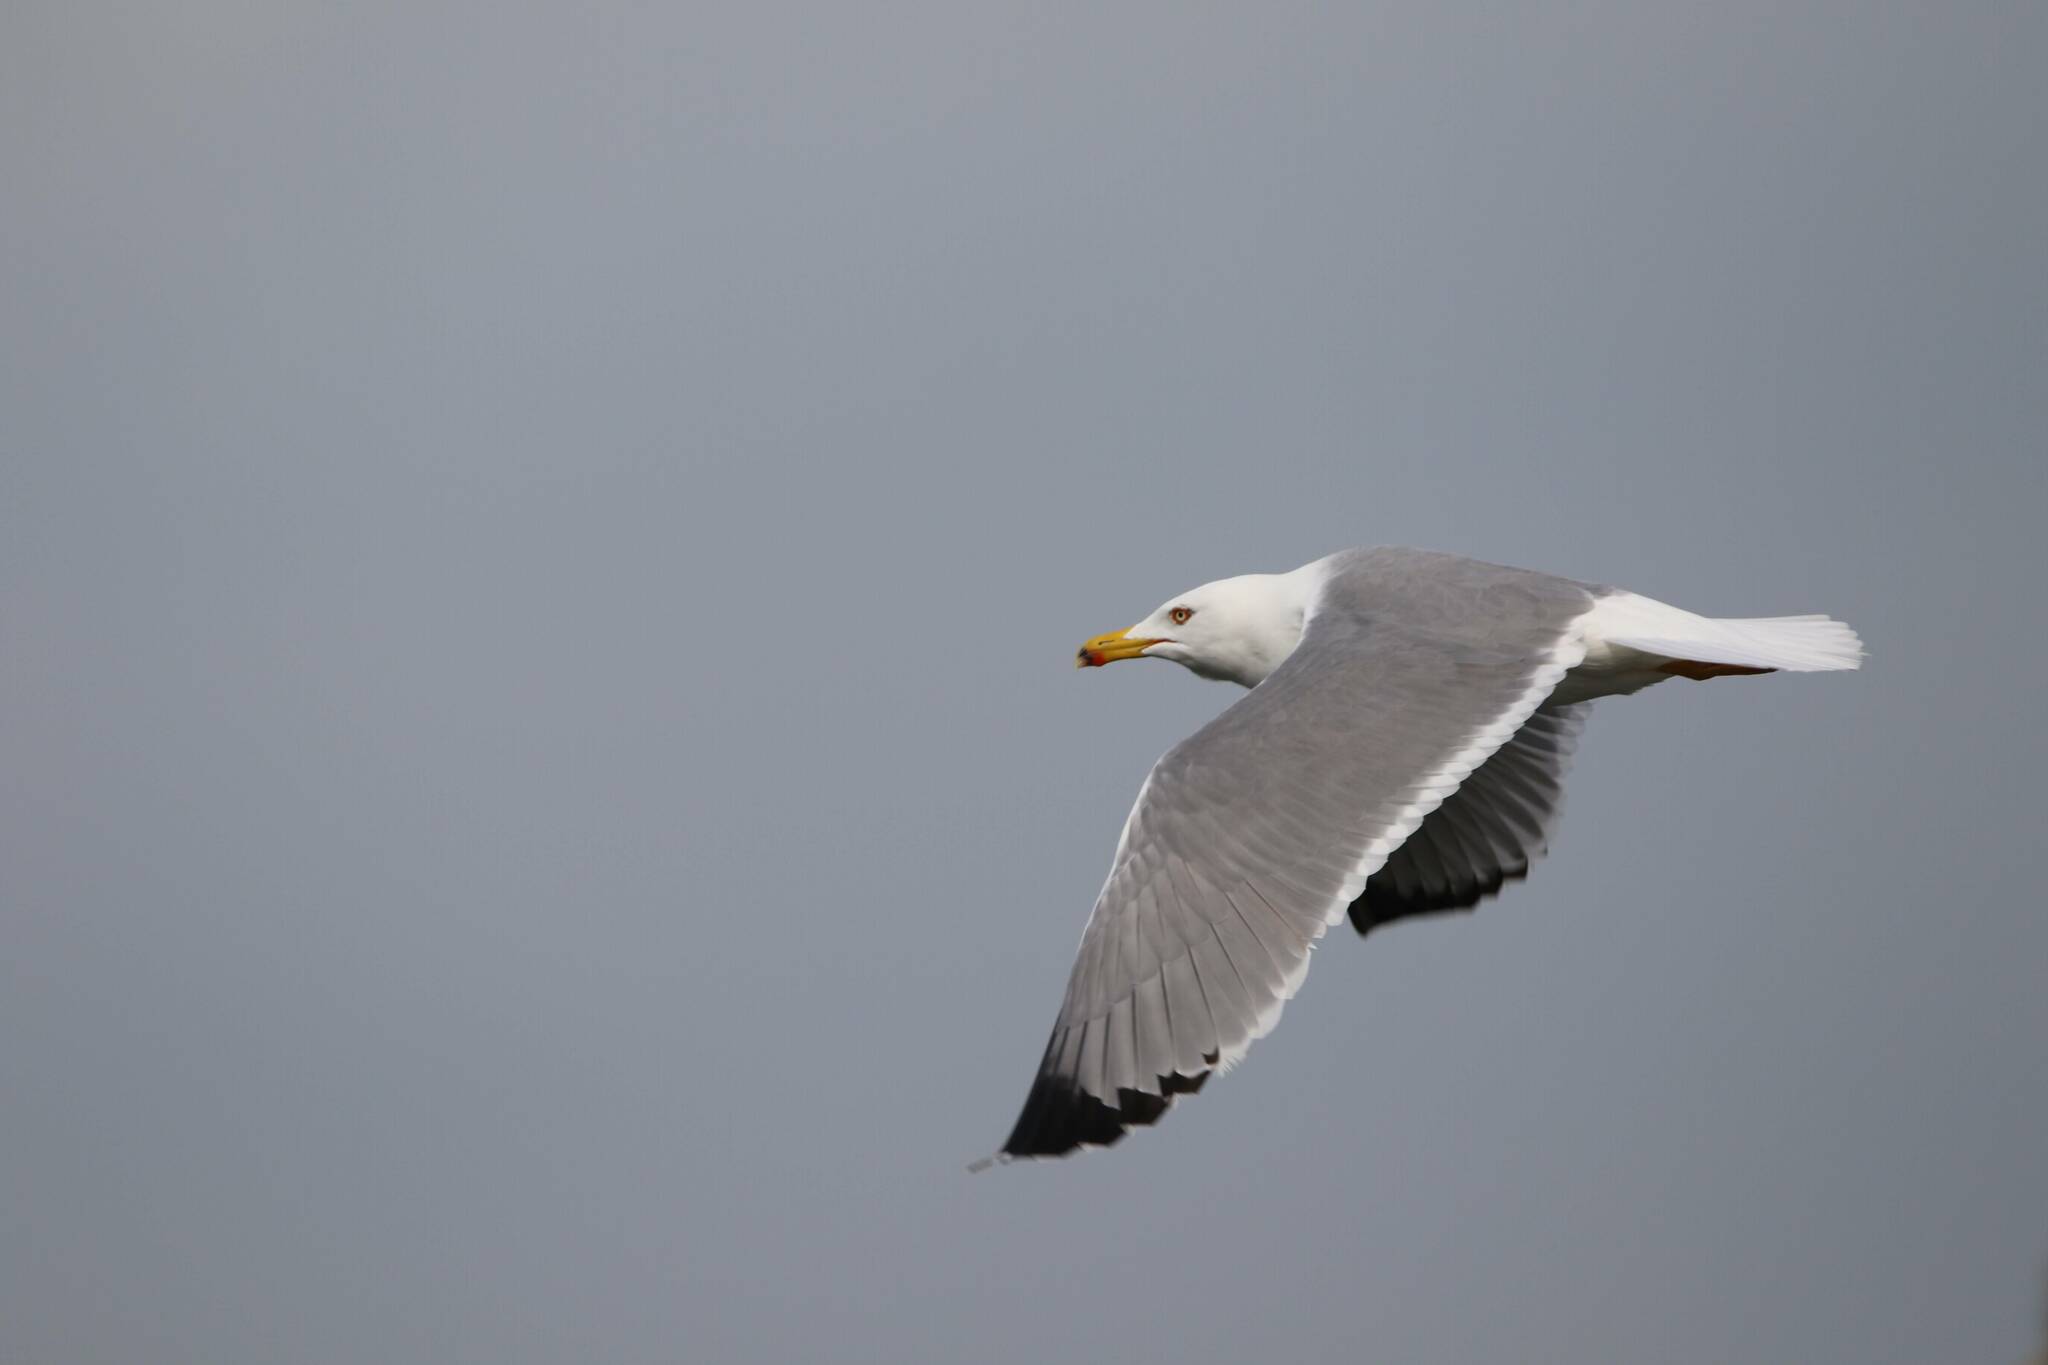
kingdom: Animalia
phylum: Chordata
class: Aves
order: Charadriiformes
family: Laridae
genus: Larus
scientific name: Larus michahellis
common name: Yellow-legged gull
